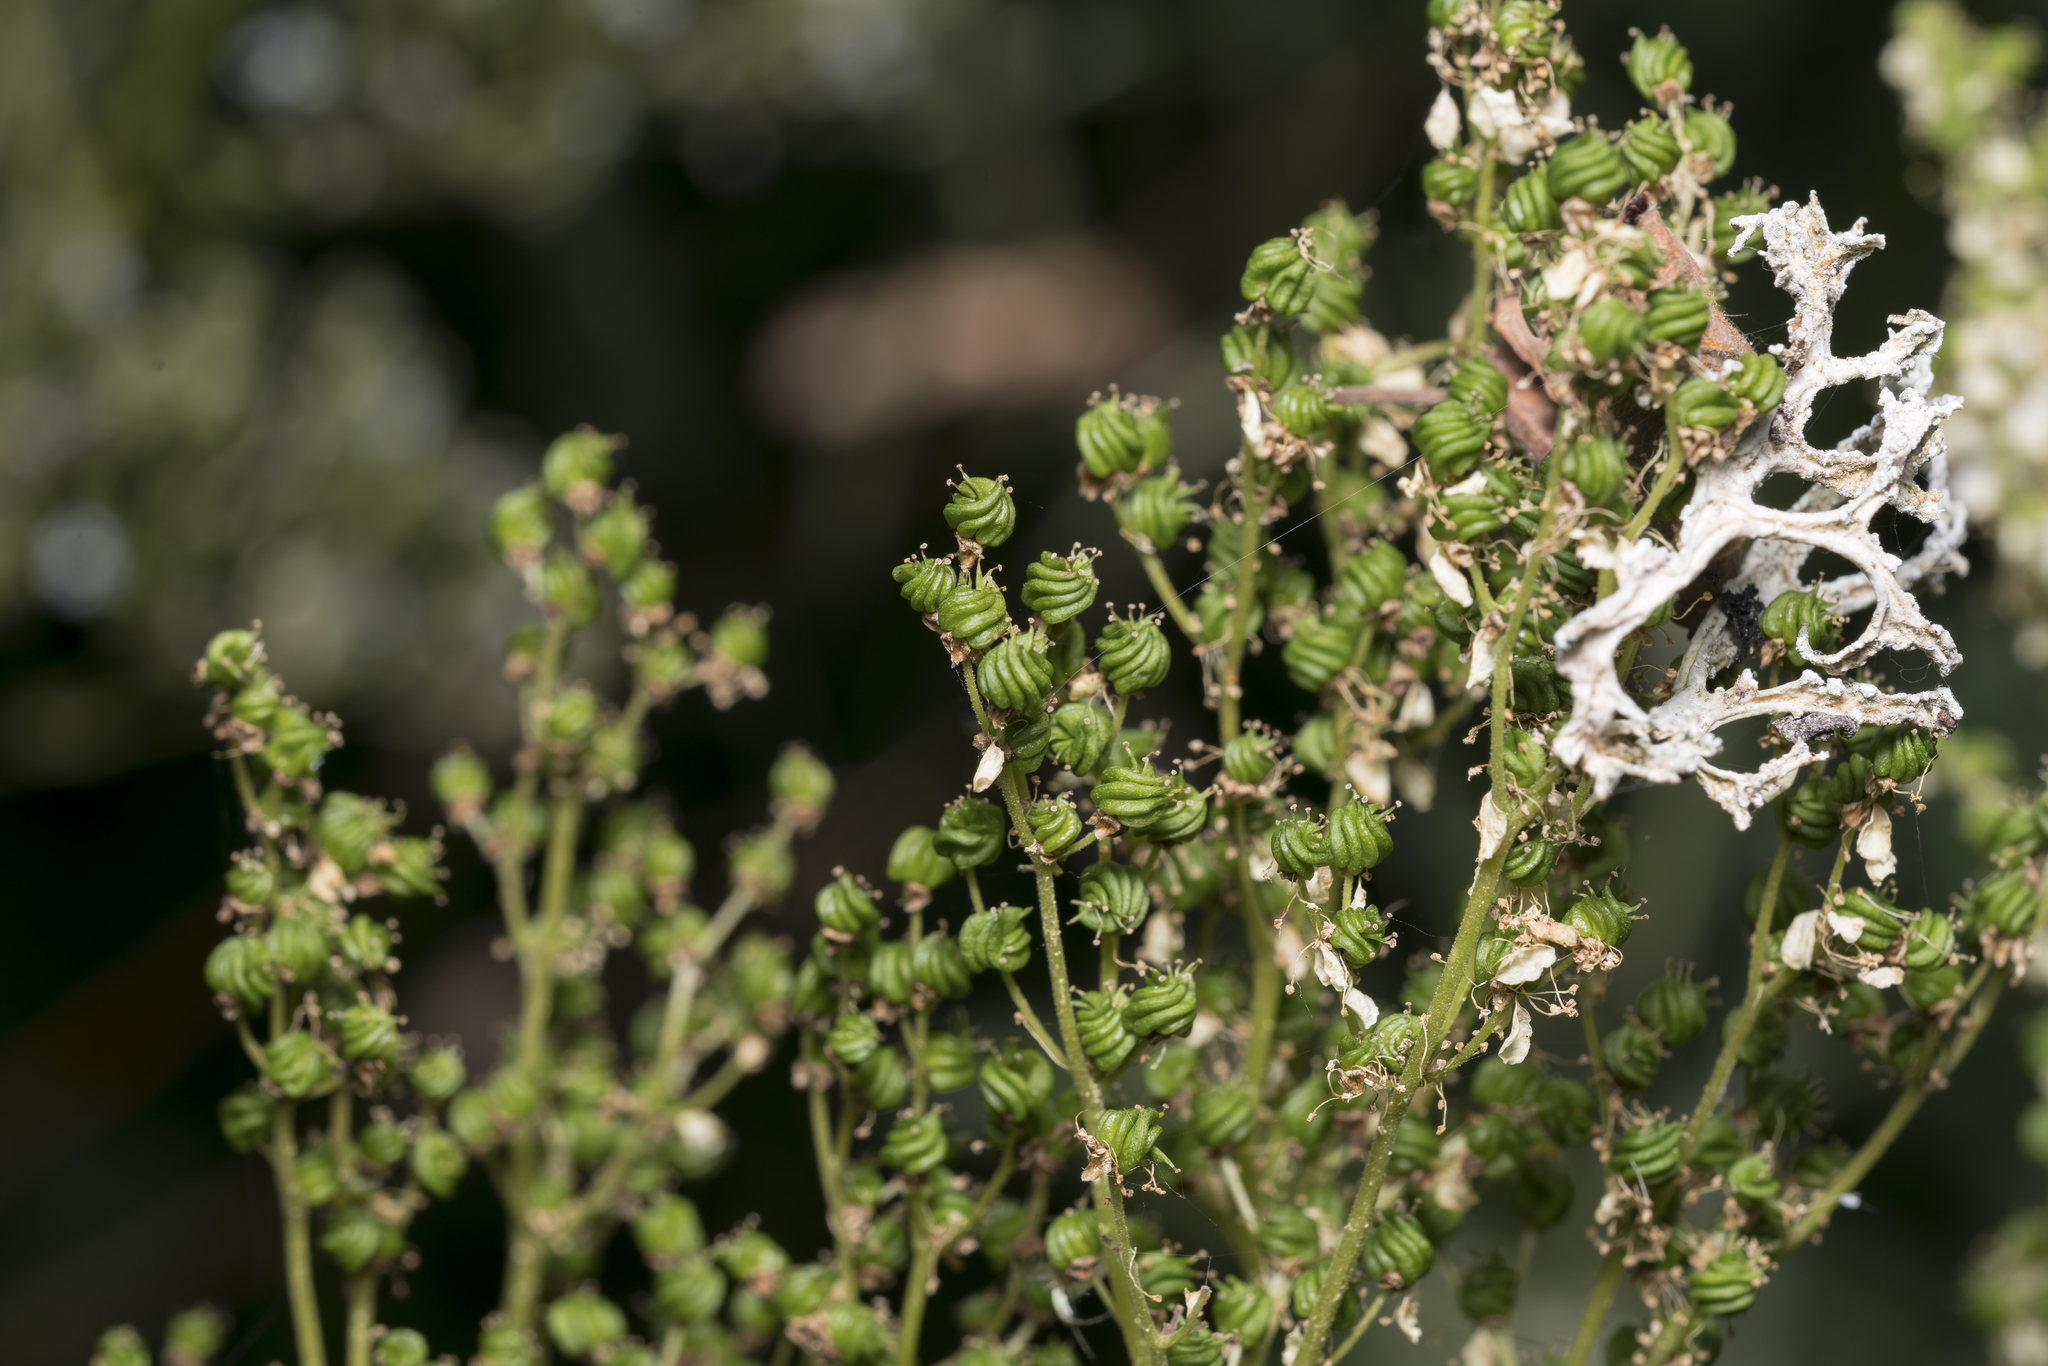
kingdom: Plantae
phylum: Tracheophyta
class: Magnoliopsida
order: Rosales
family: Rosaceae
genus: Filipendula
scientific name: Filipendula ulmaria
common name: Meadowsweet
